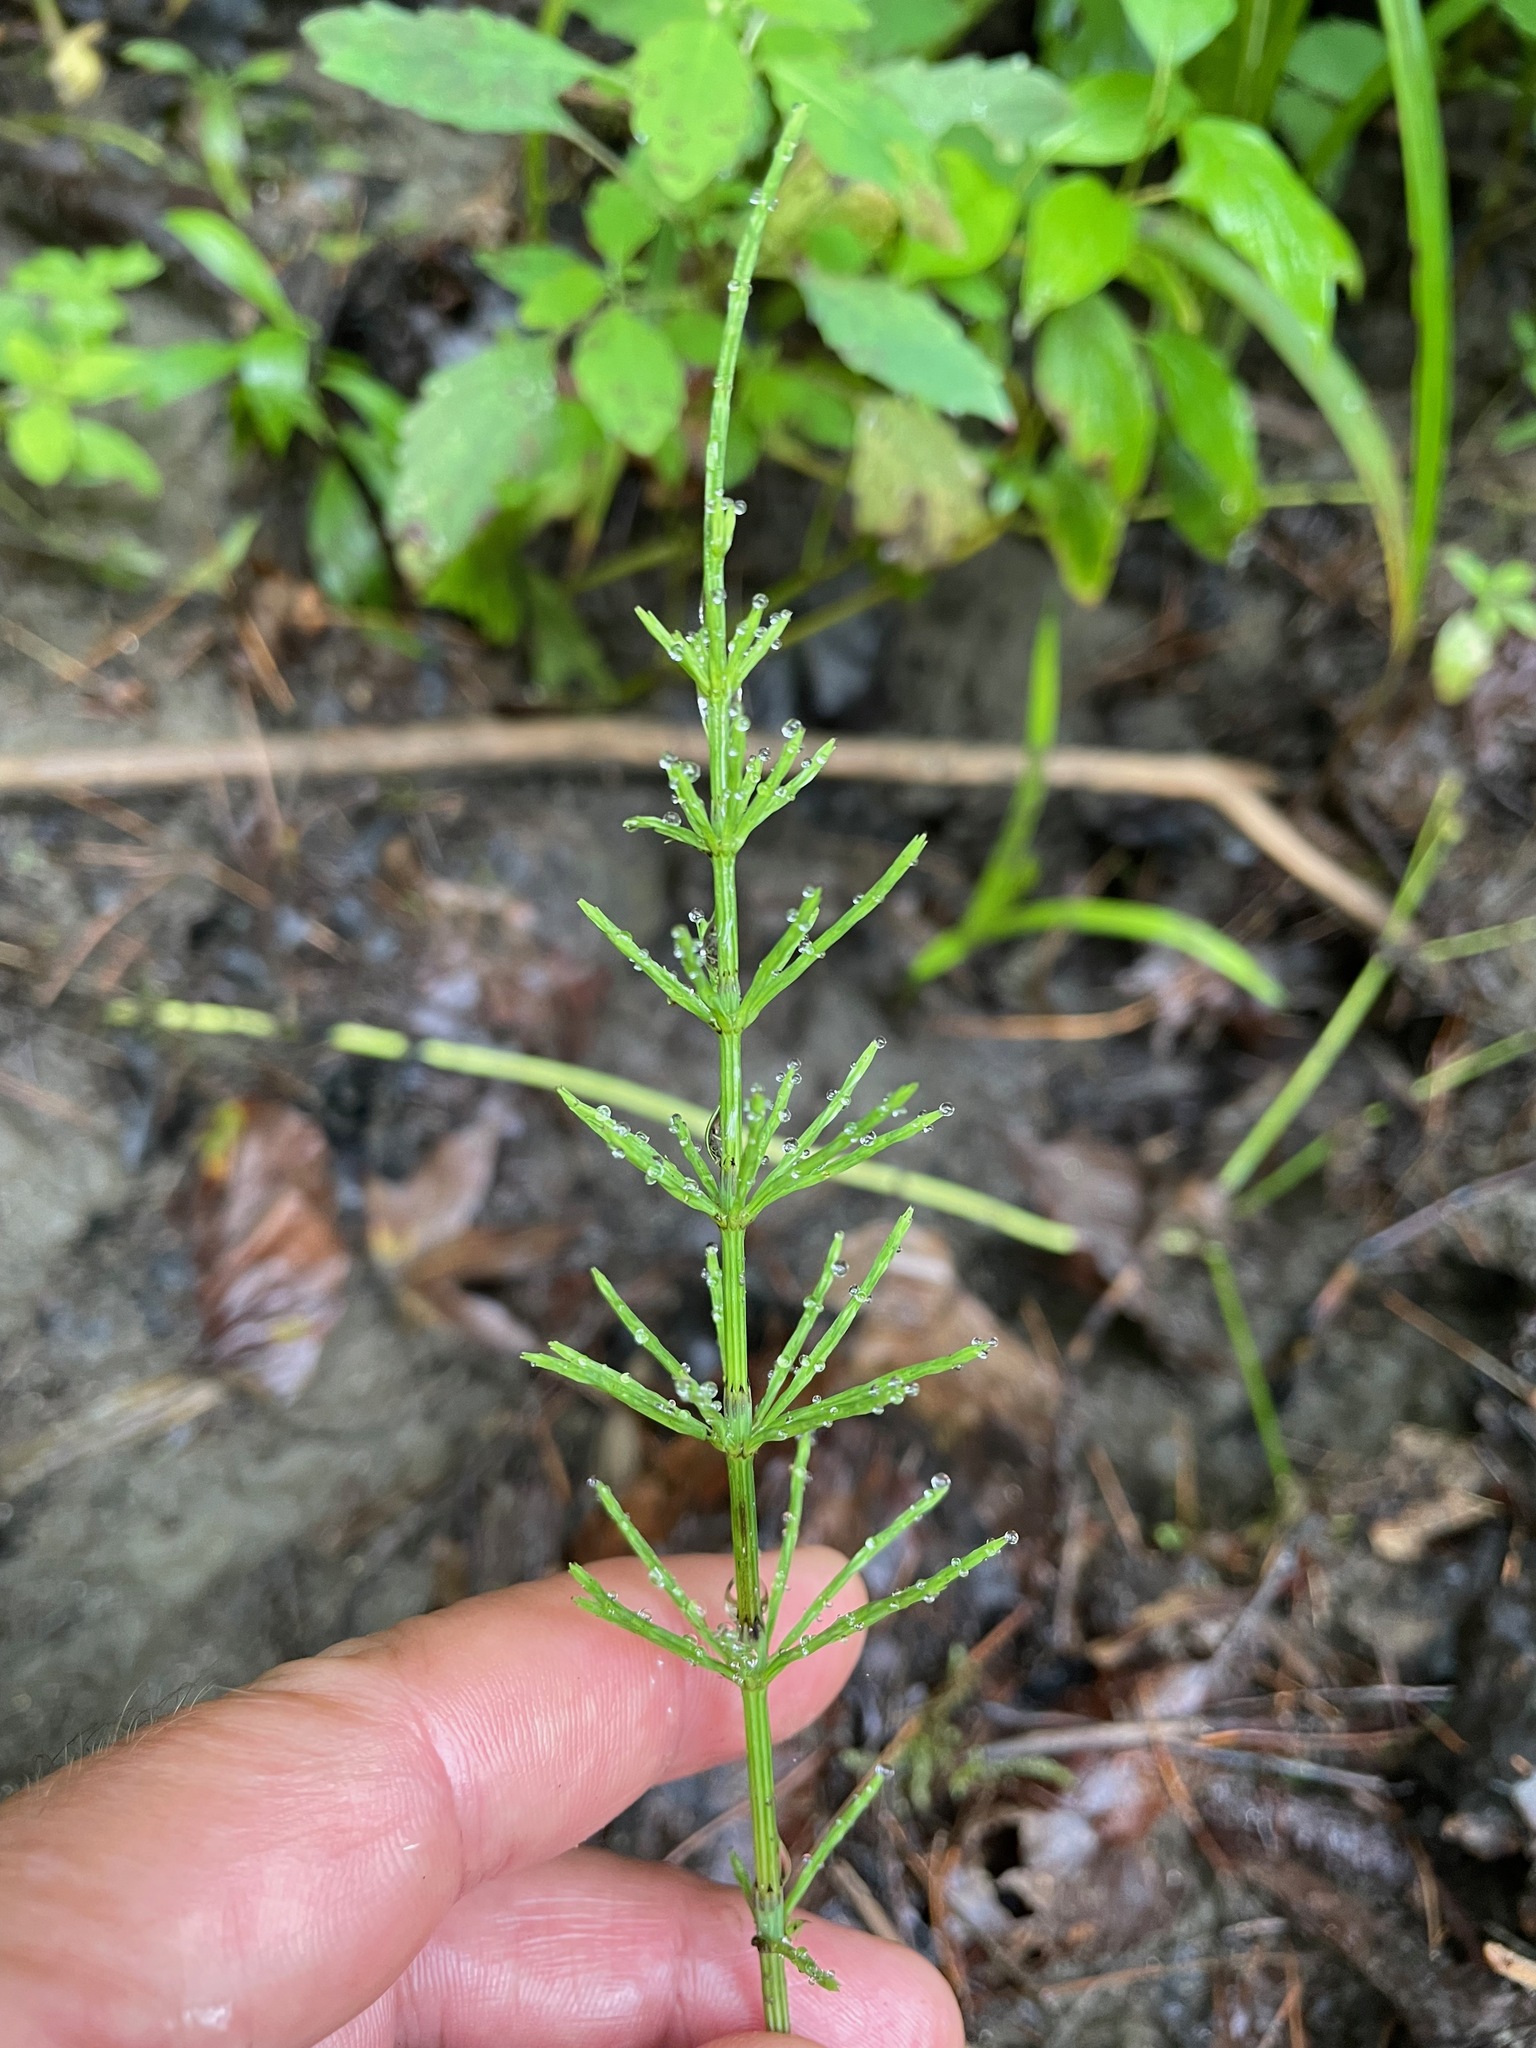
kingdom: Plantae
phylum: Tracheophyta
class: Polypodiopsida
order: Equisetales
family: Equisetaceae
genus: Equisetum
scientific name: Equisetum arvense
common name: Field horsetail
